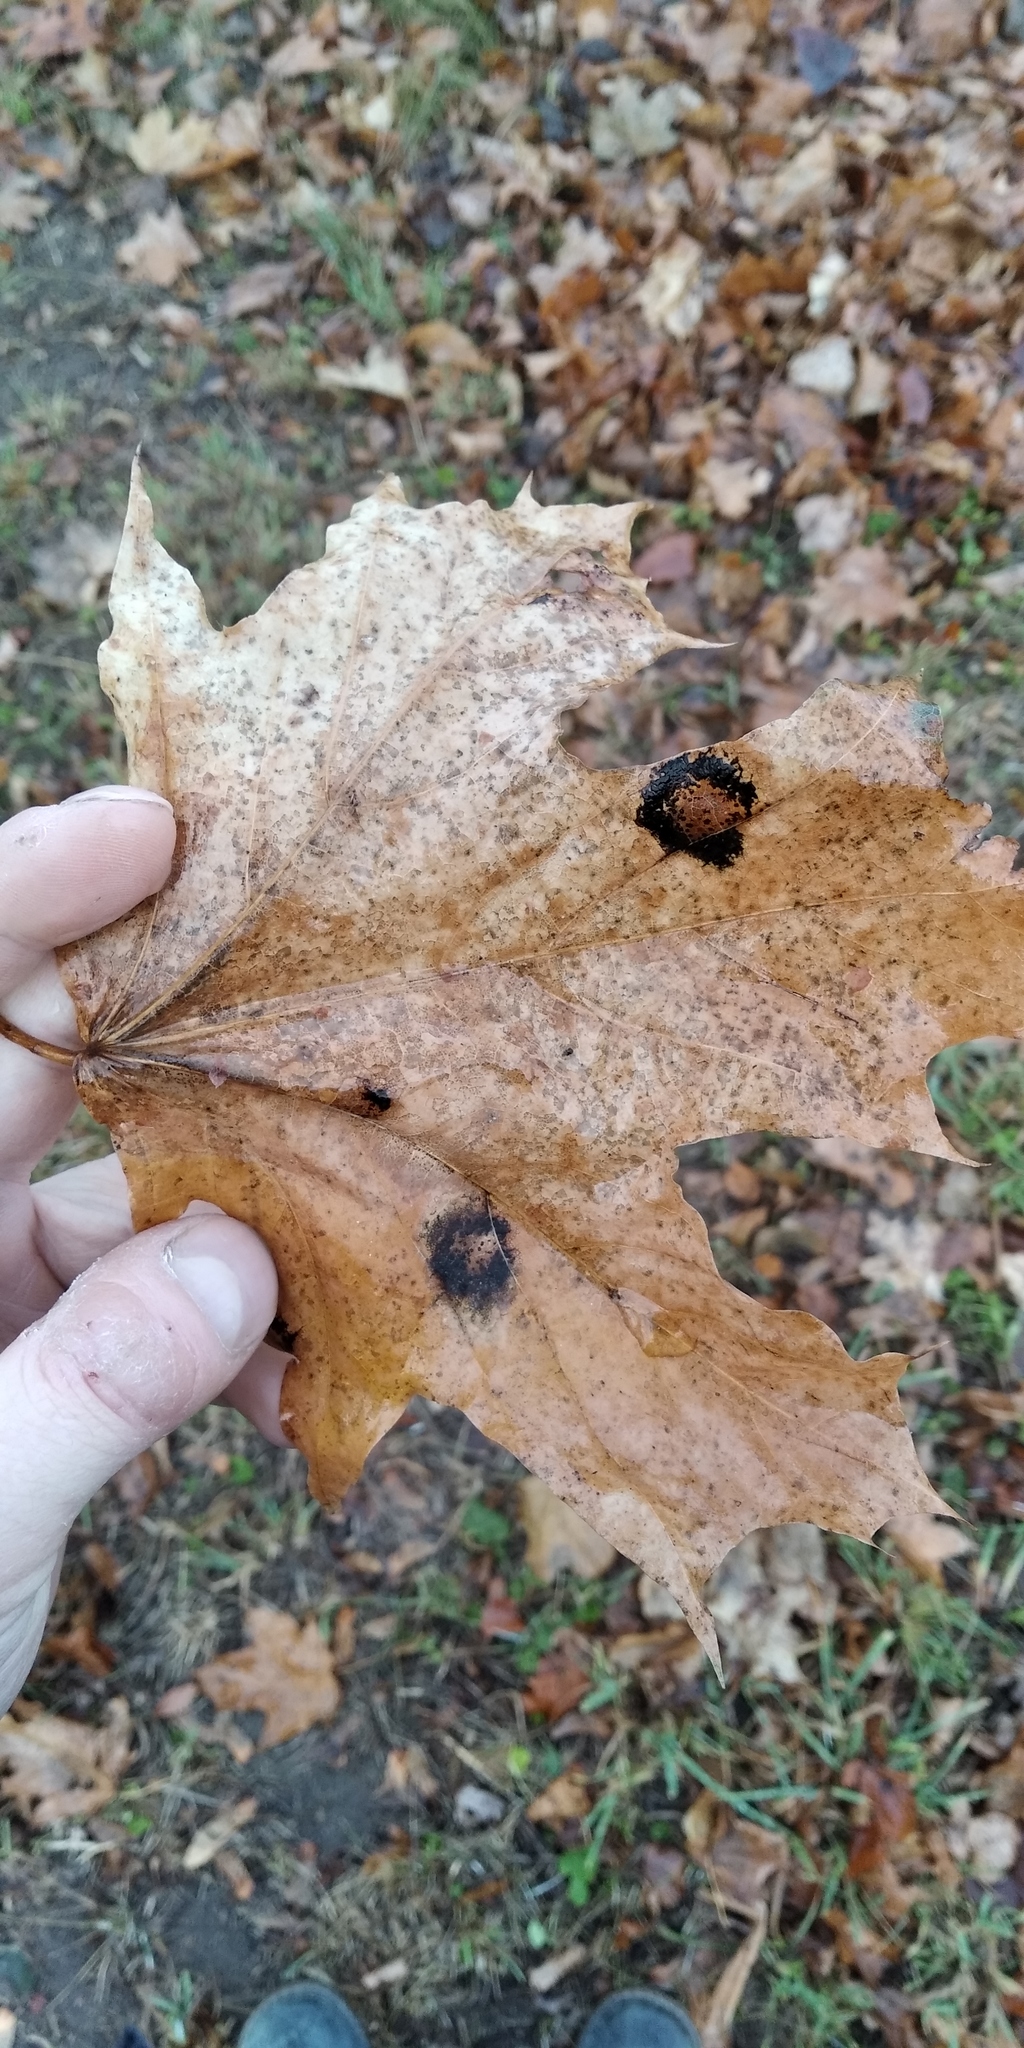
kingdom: Fungi
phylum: Ascomycota
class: Leotiomycetes
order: Rhytismatales
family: Rhytismataceae
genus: Rhytisma
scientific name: Rhytisma acerinum
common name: European tar spot
